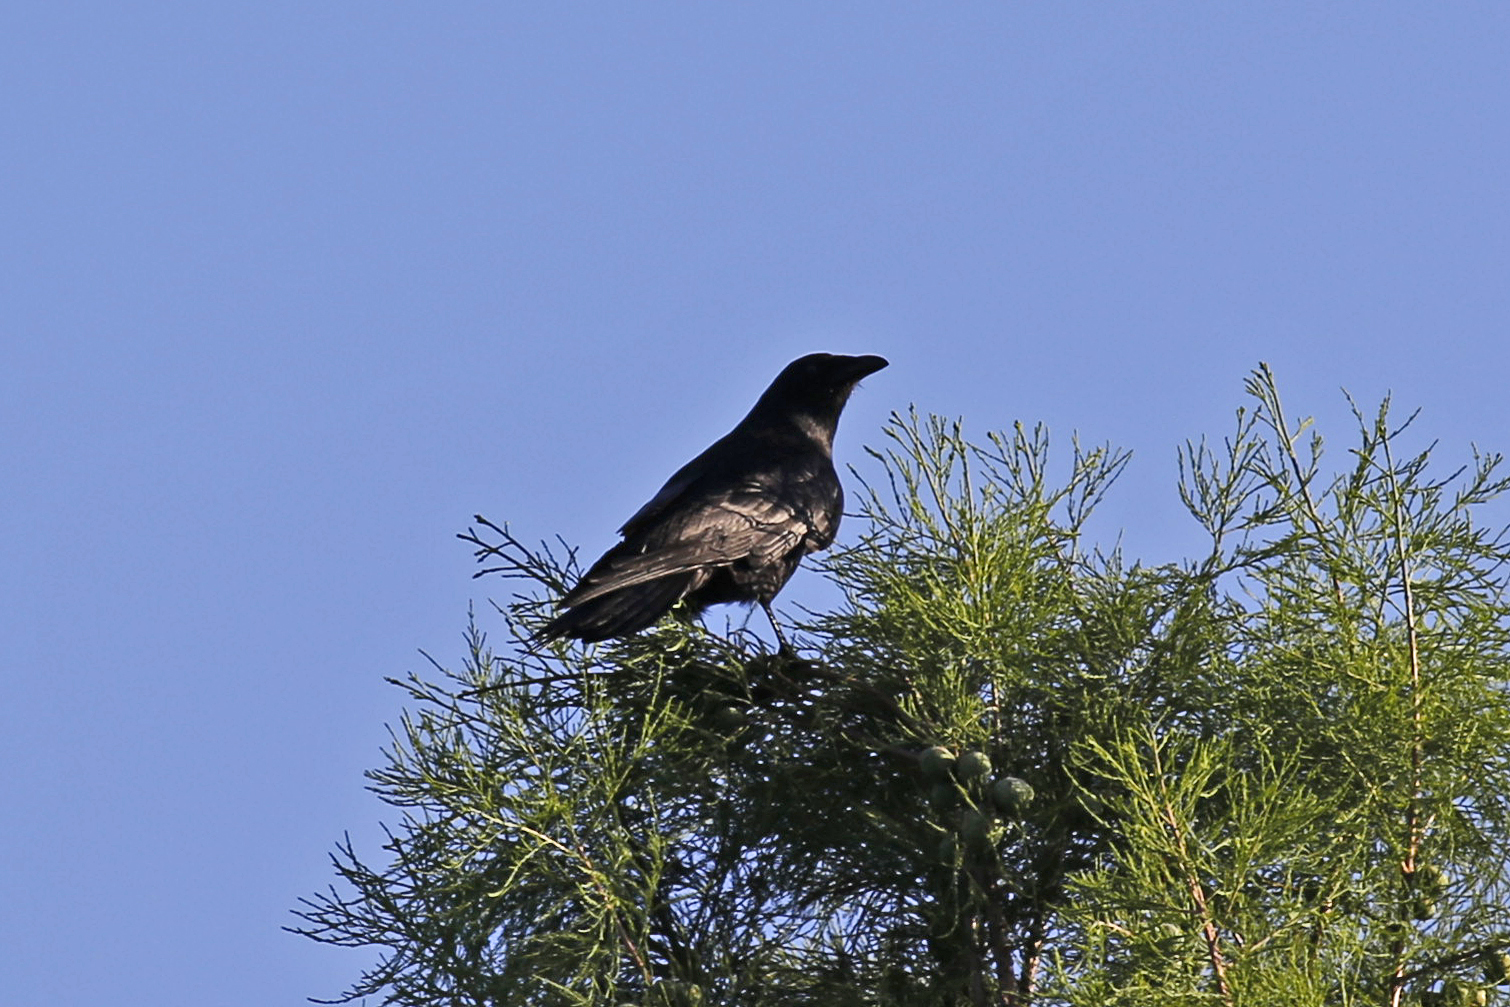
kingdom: Animalia
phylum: Chordata
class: Aves
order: Passeriformes
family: Corvidae
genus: Corvus
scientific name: Corvus ossifragus
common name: Fish crow
